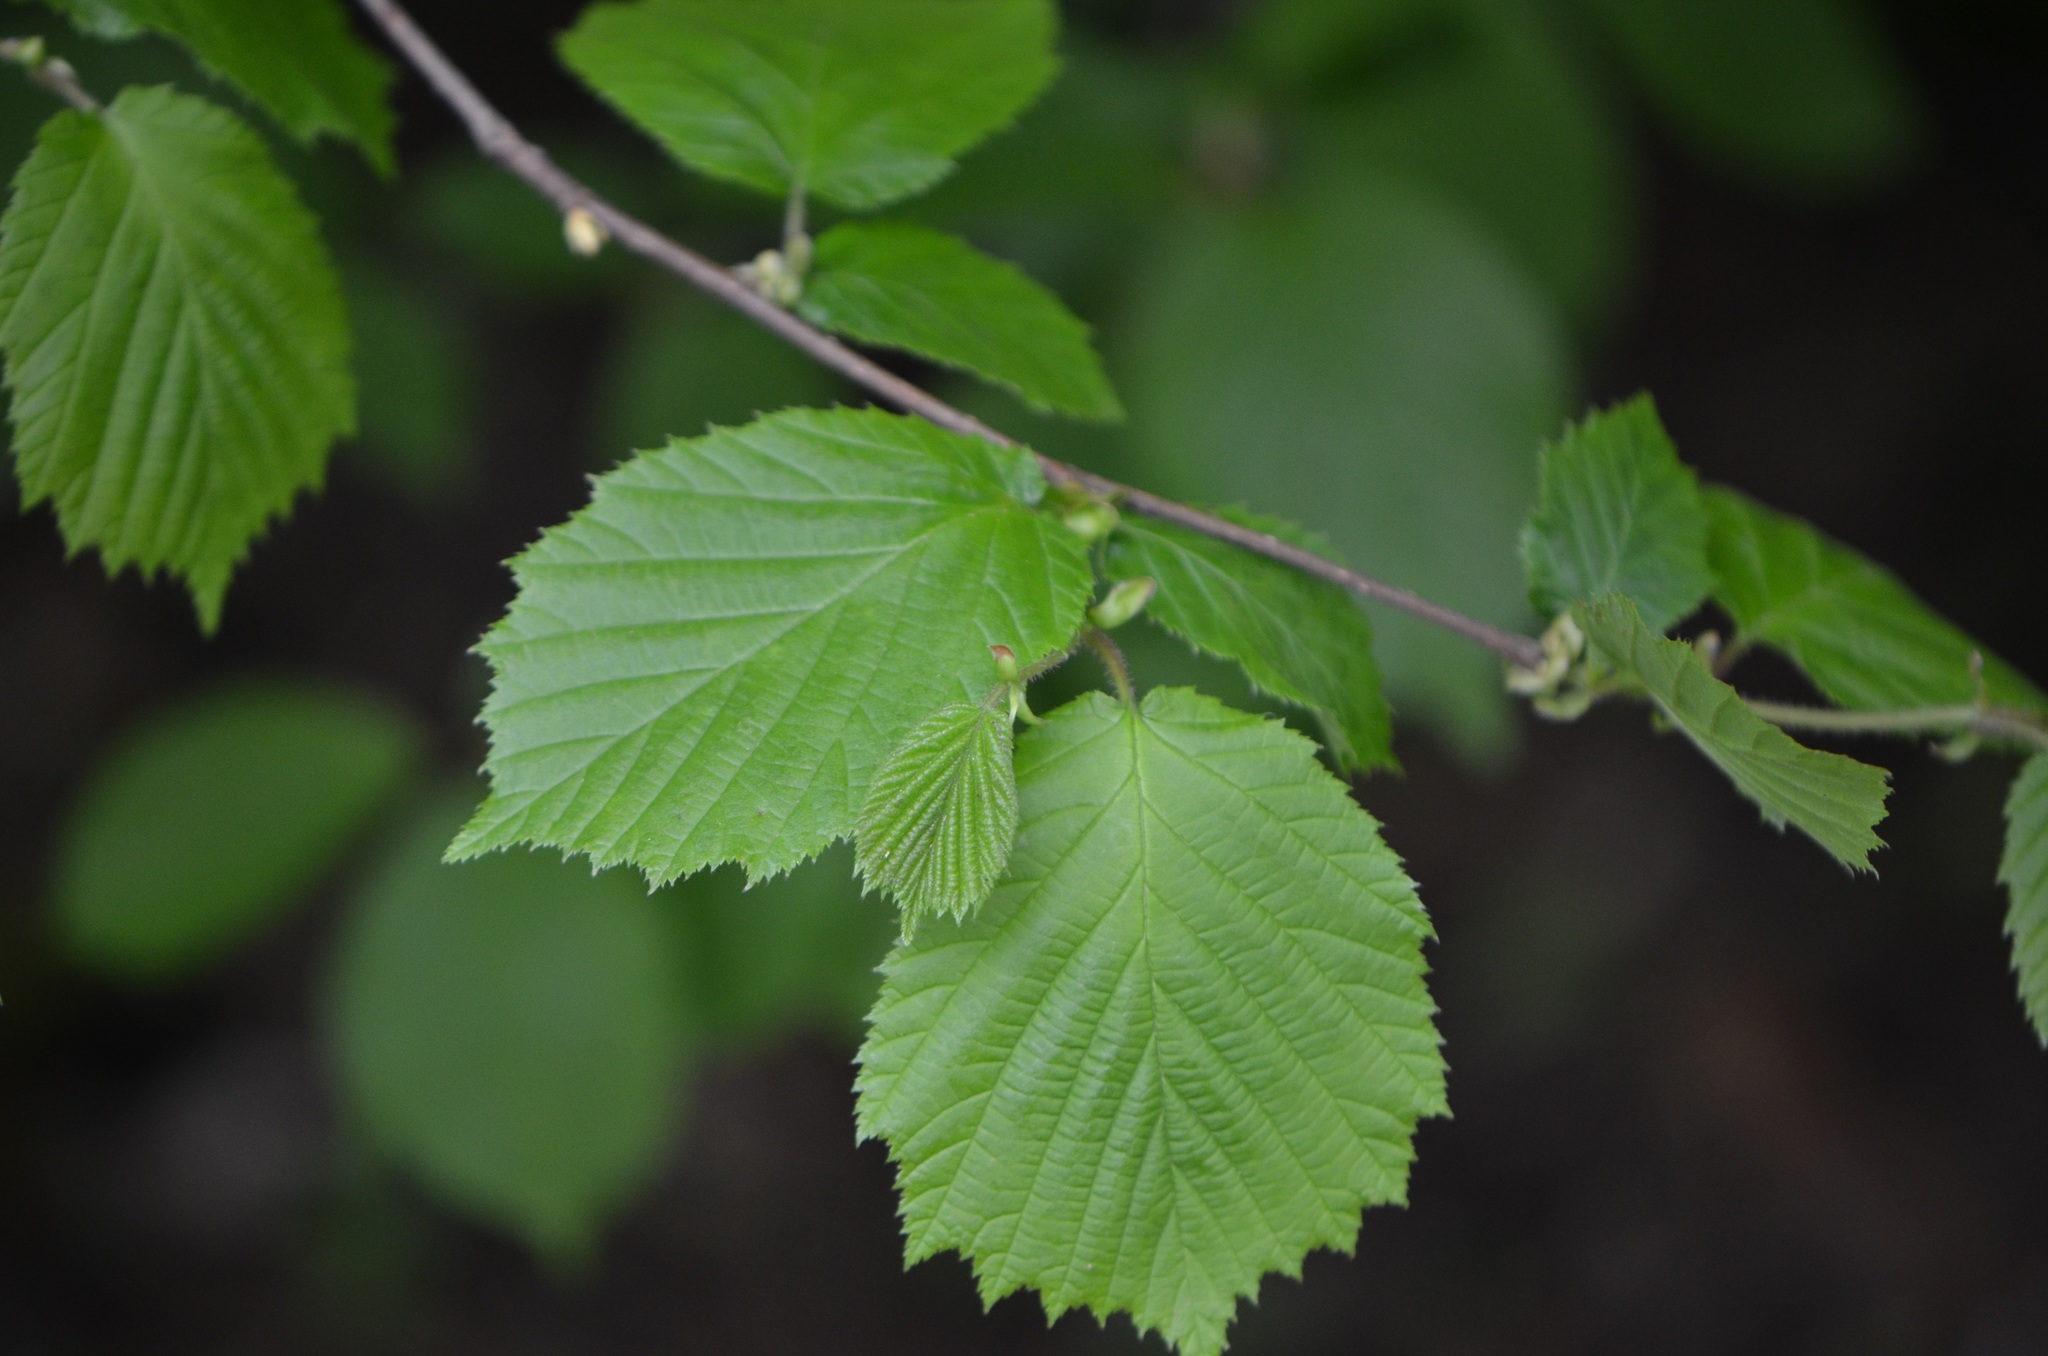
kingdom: Plantae
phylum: Tracheophyta
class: Magnoliopsida
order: Fagales
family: Betulaceae
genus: Corylus
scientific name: Corylus avellana
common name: European hazel
